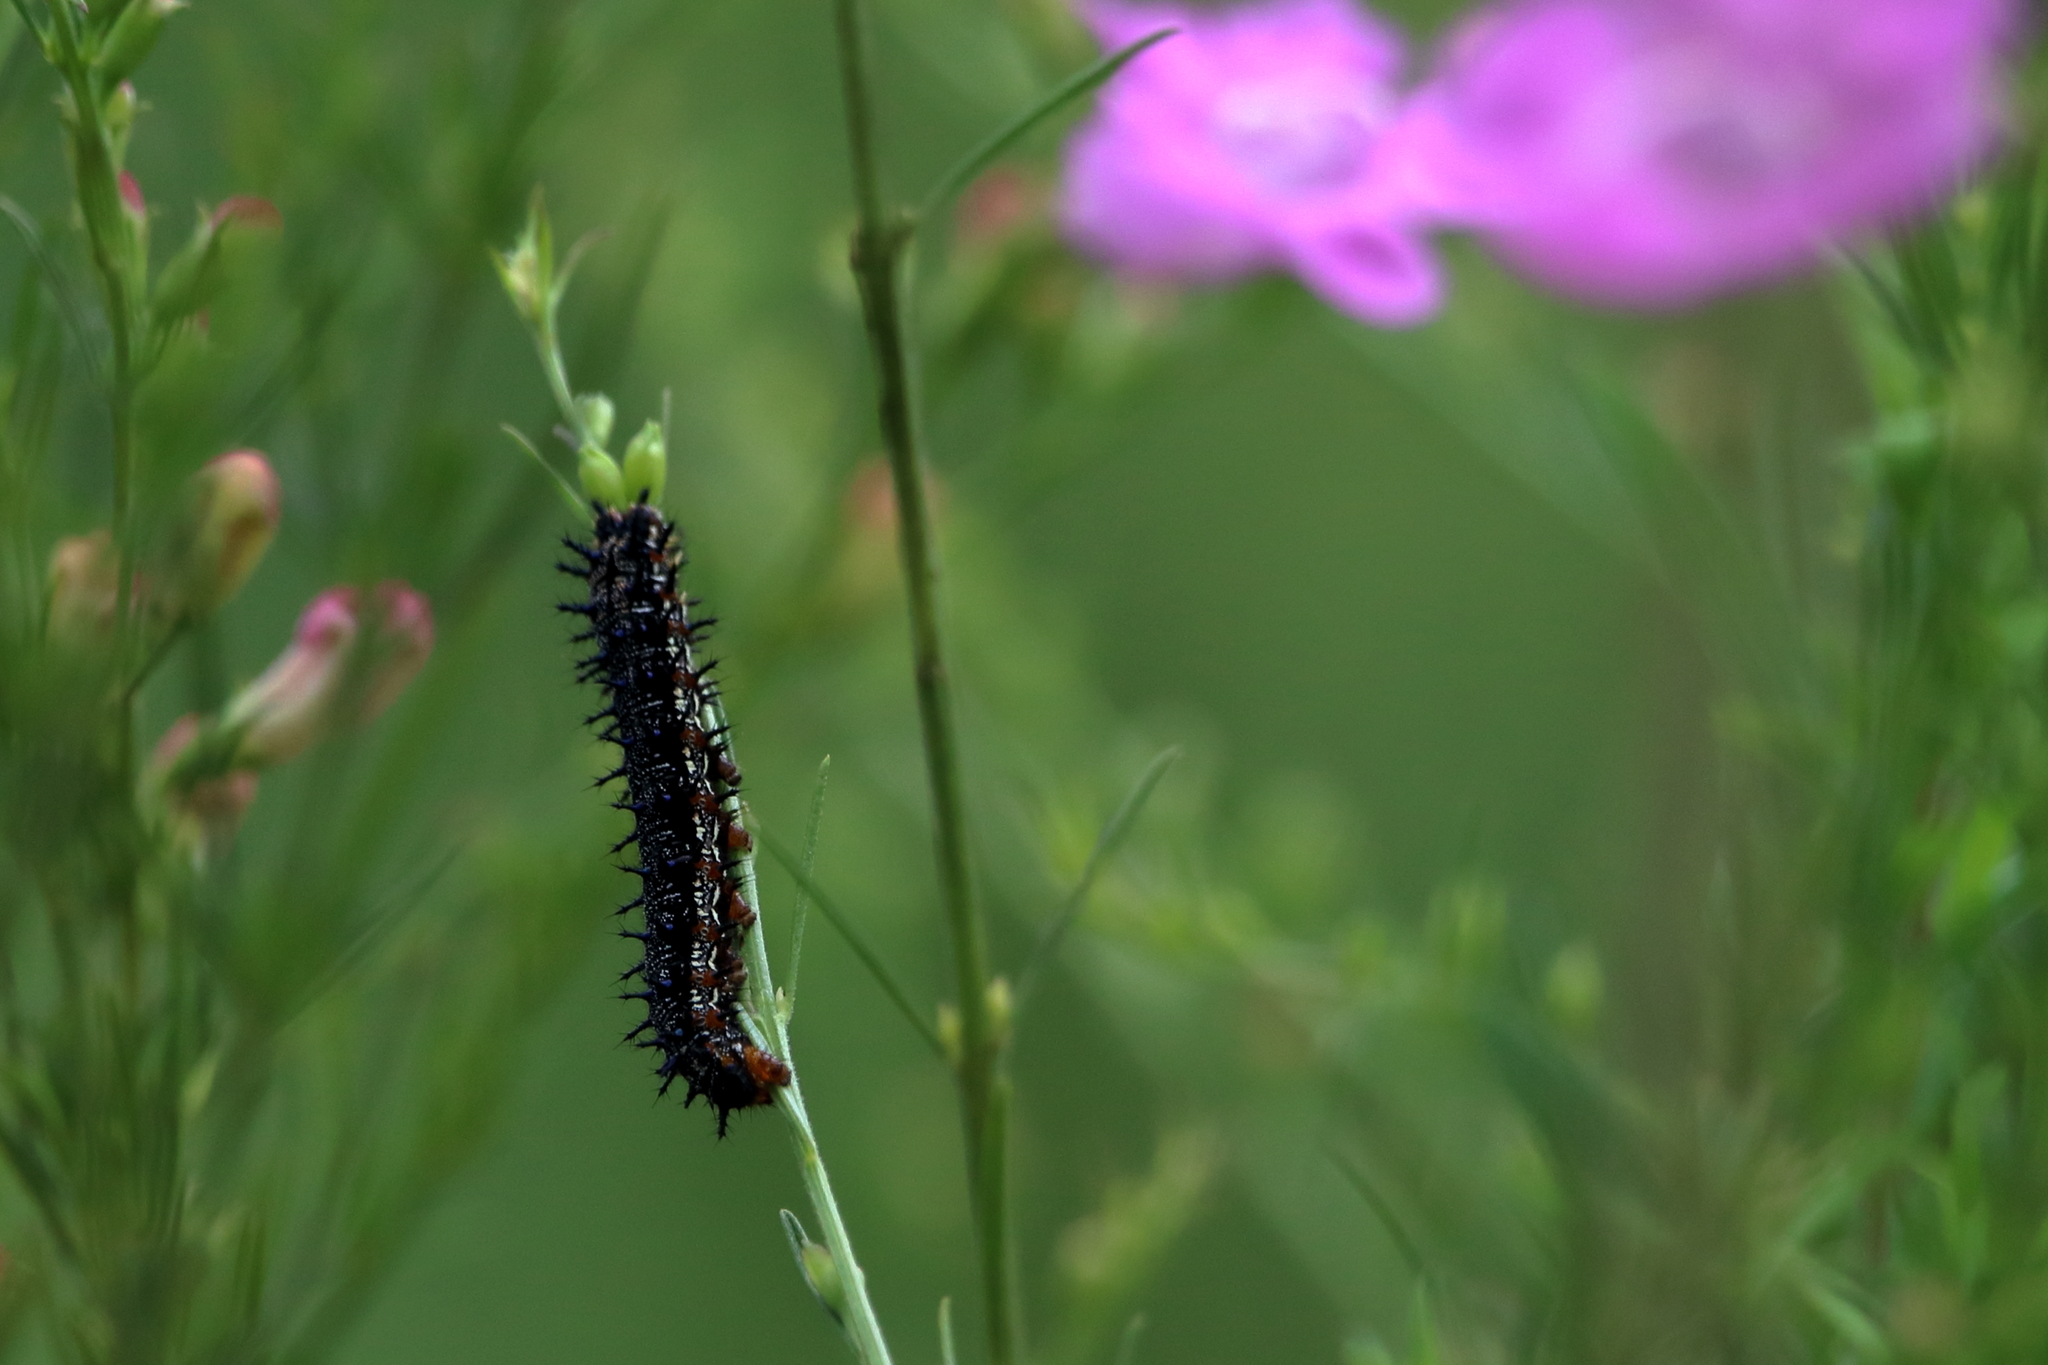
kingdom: Animalia
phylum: Arthropoda
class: Insecta
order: Lepidoptera
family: Nymphalidae
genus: Junonia
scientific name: Junonia coenia
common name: Common buckeye
